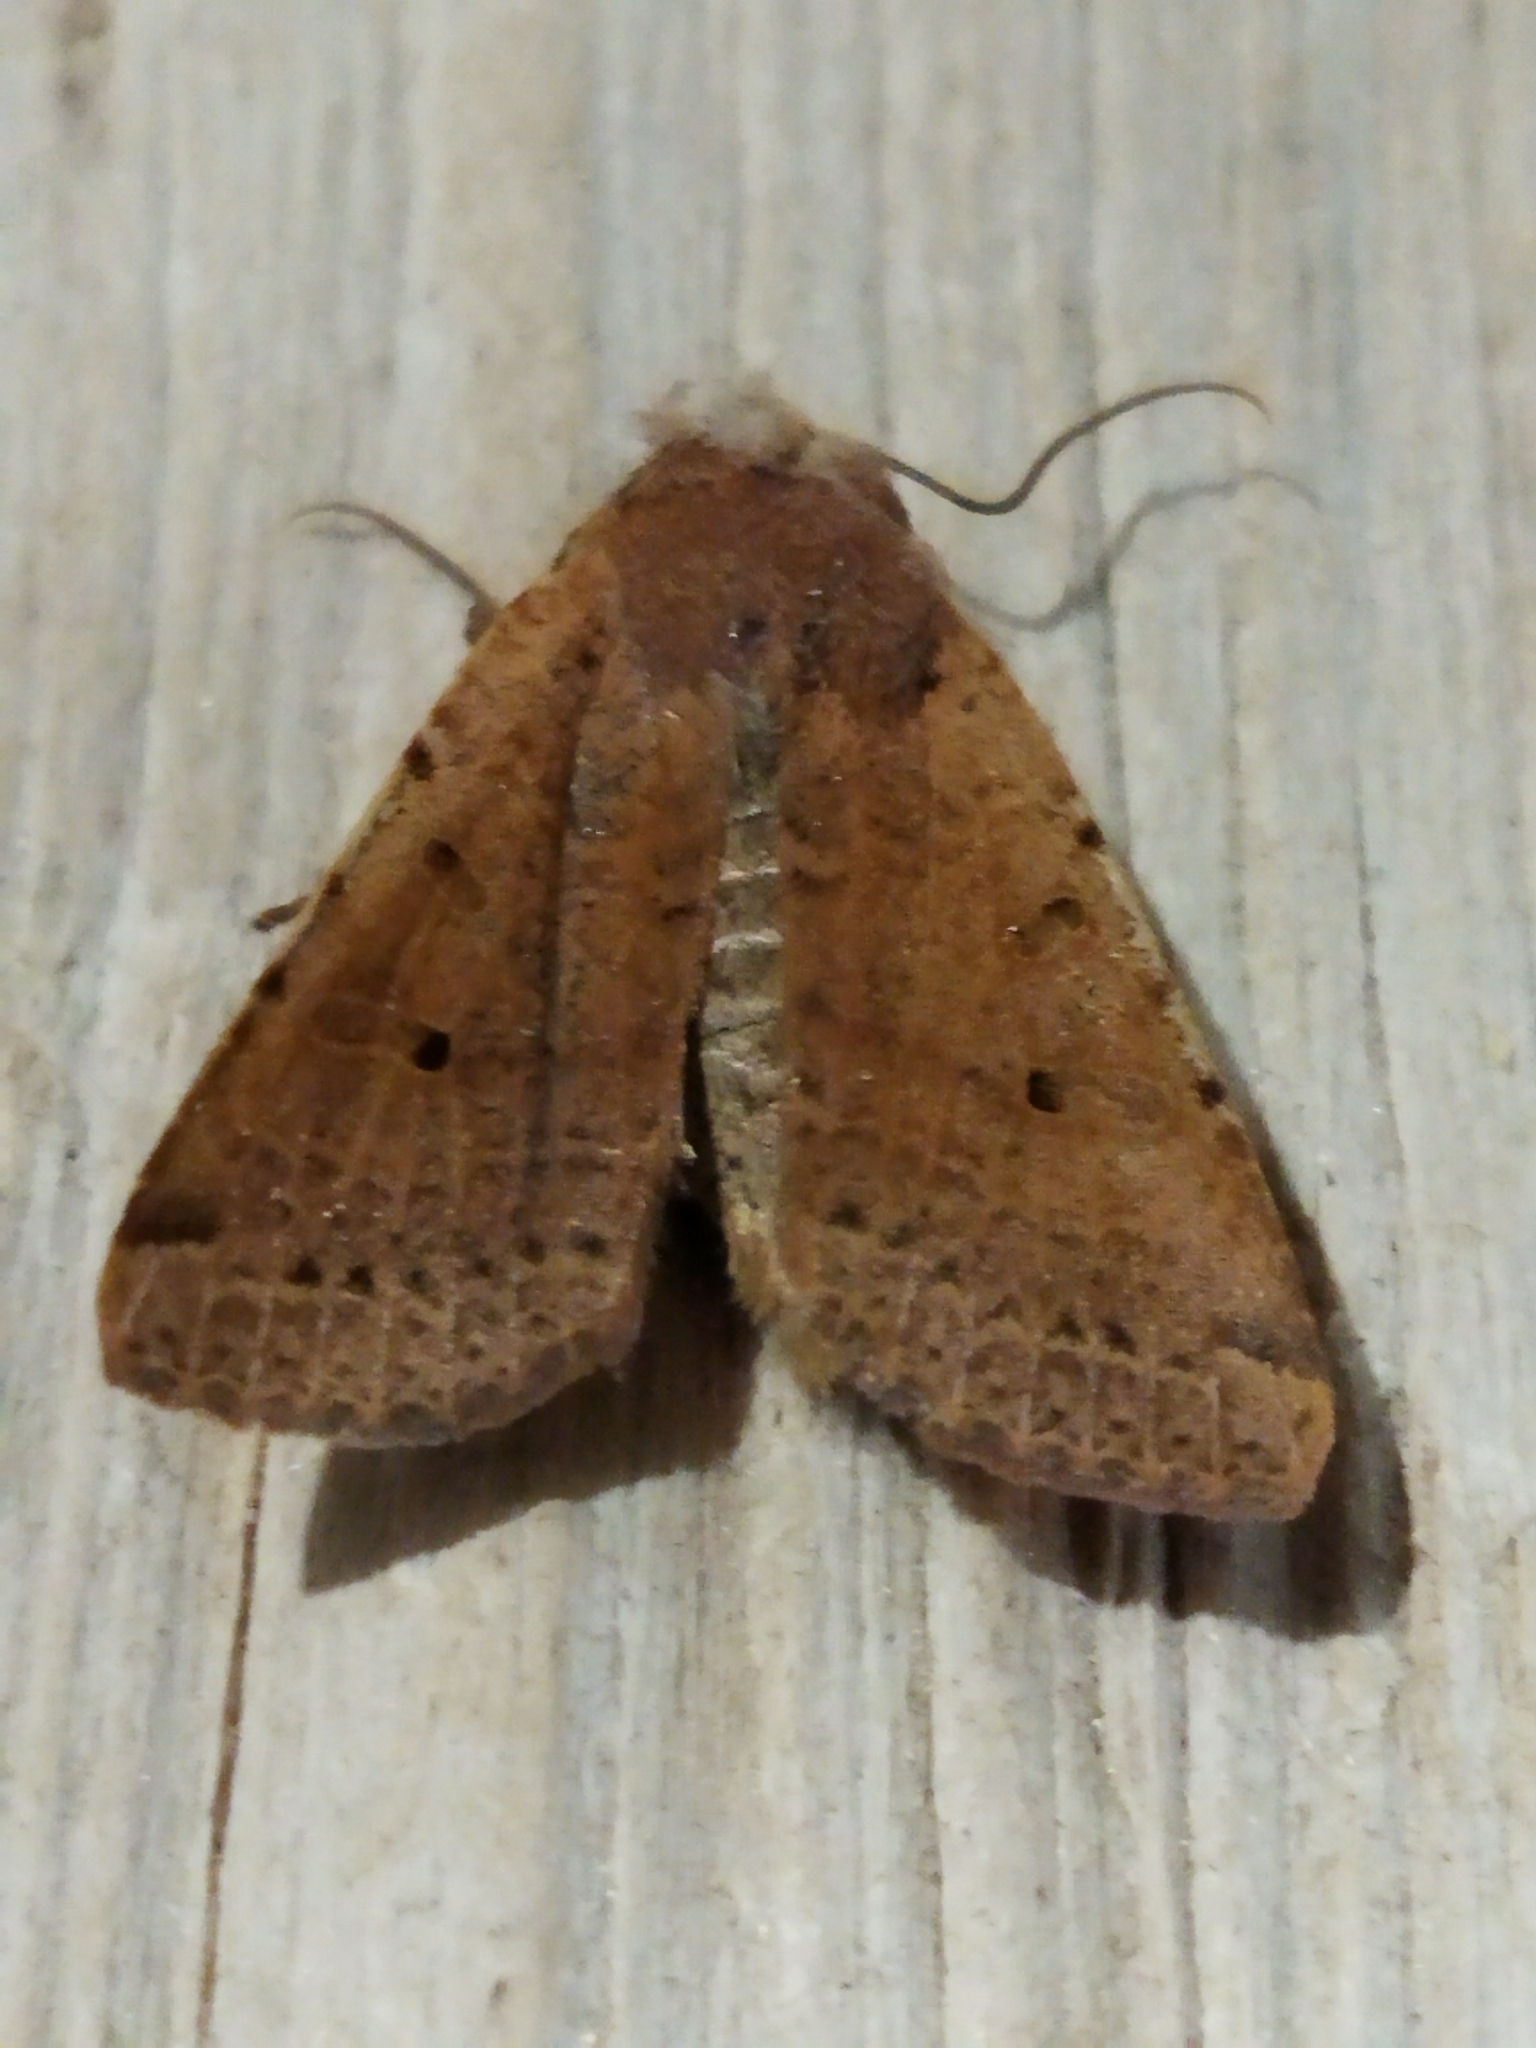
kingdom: Animalia
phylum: Arthropoda
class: Insecta
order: Lepidoptera
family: Noctuidae
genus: Agrochola
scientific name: Agrochola lychnidis
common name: Beaded chestnut
